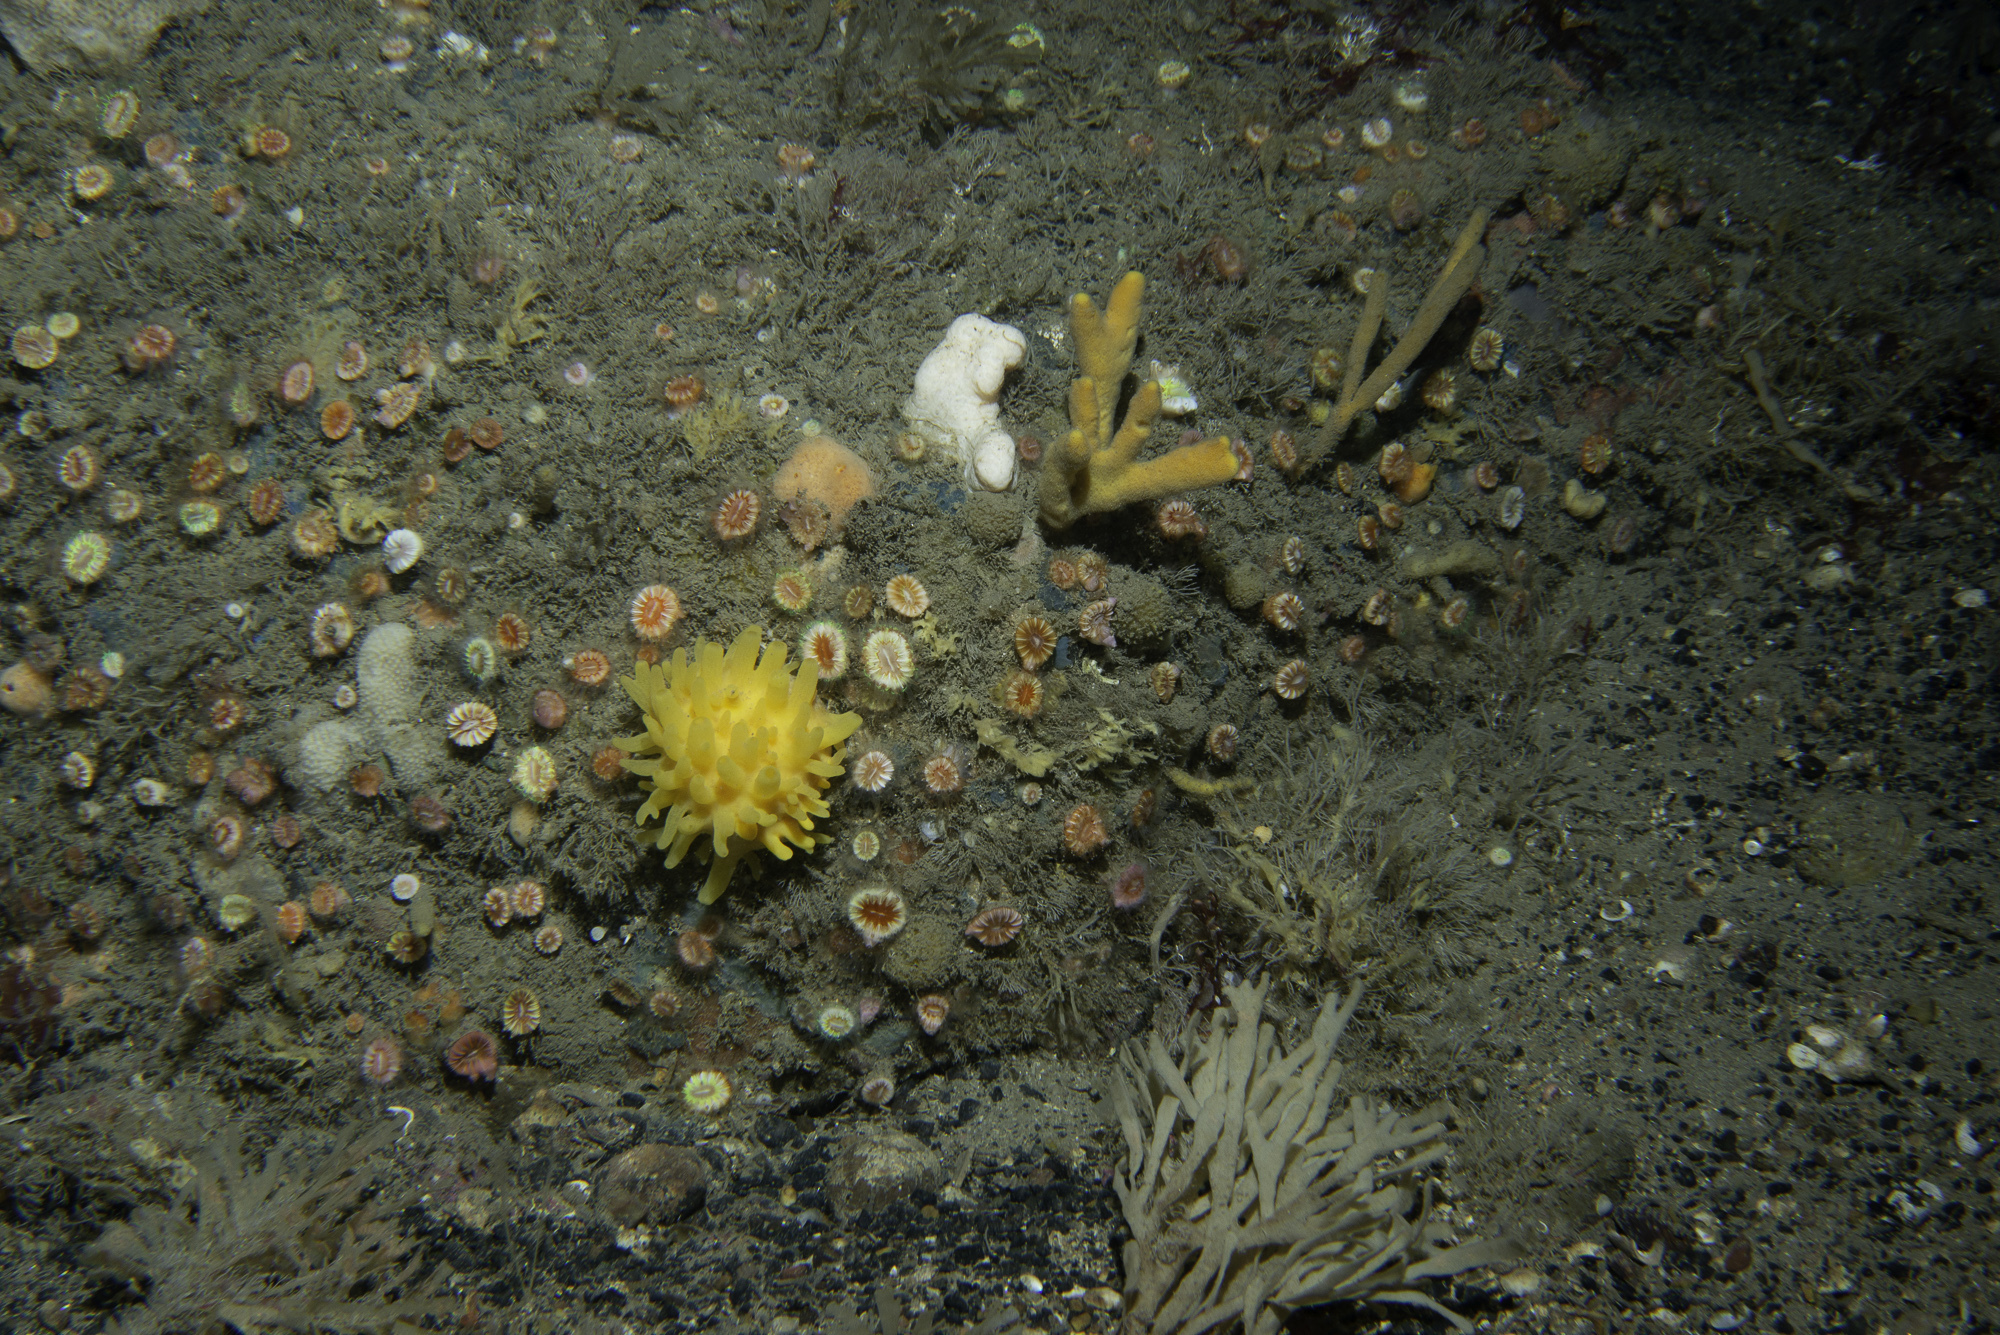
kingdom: Animalia
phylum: Porifera
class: Demospongiae
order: Axinellida
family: Axinellidae
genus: Axinella
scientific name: Axinella dissimilis
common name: Branching sponge
